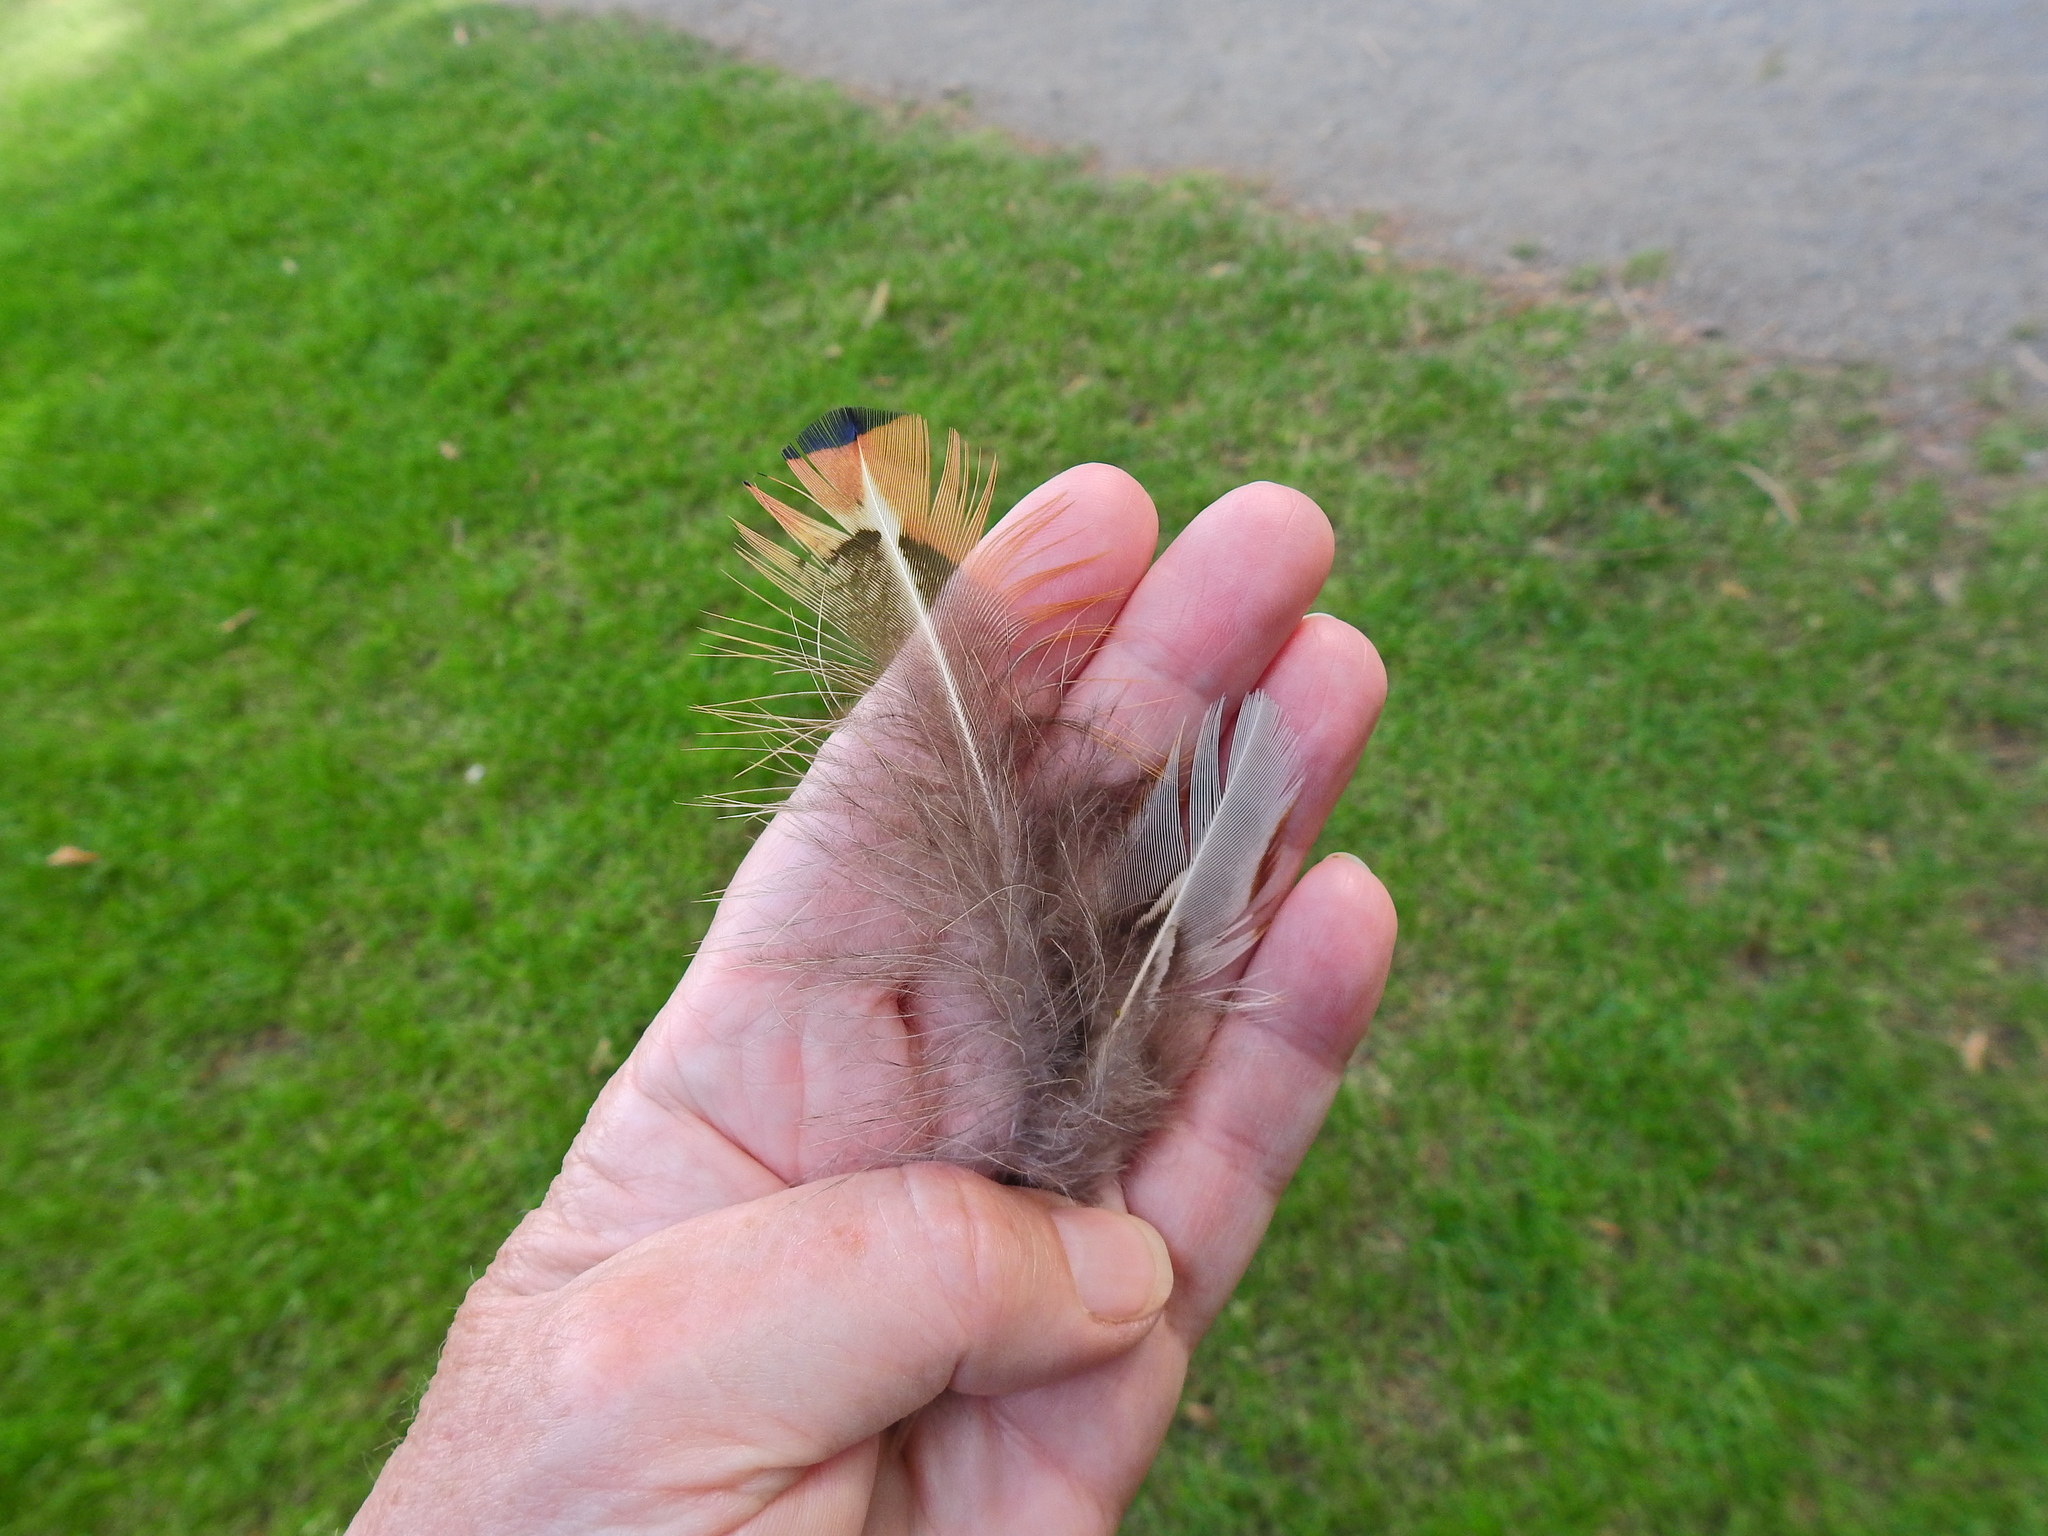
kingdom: Animalia
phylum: Chordata
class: Aves
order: Galliformes
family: Phasianidae
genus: Phasianus
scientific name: Phasianus colchicus
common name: Common pheasant
